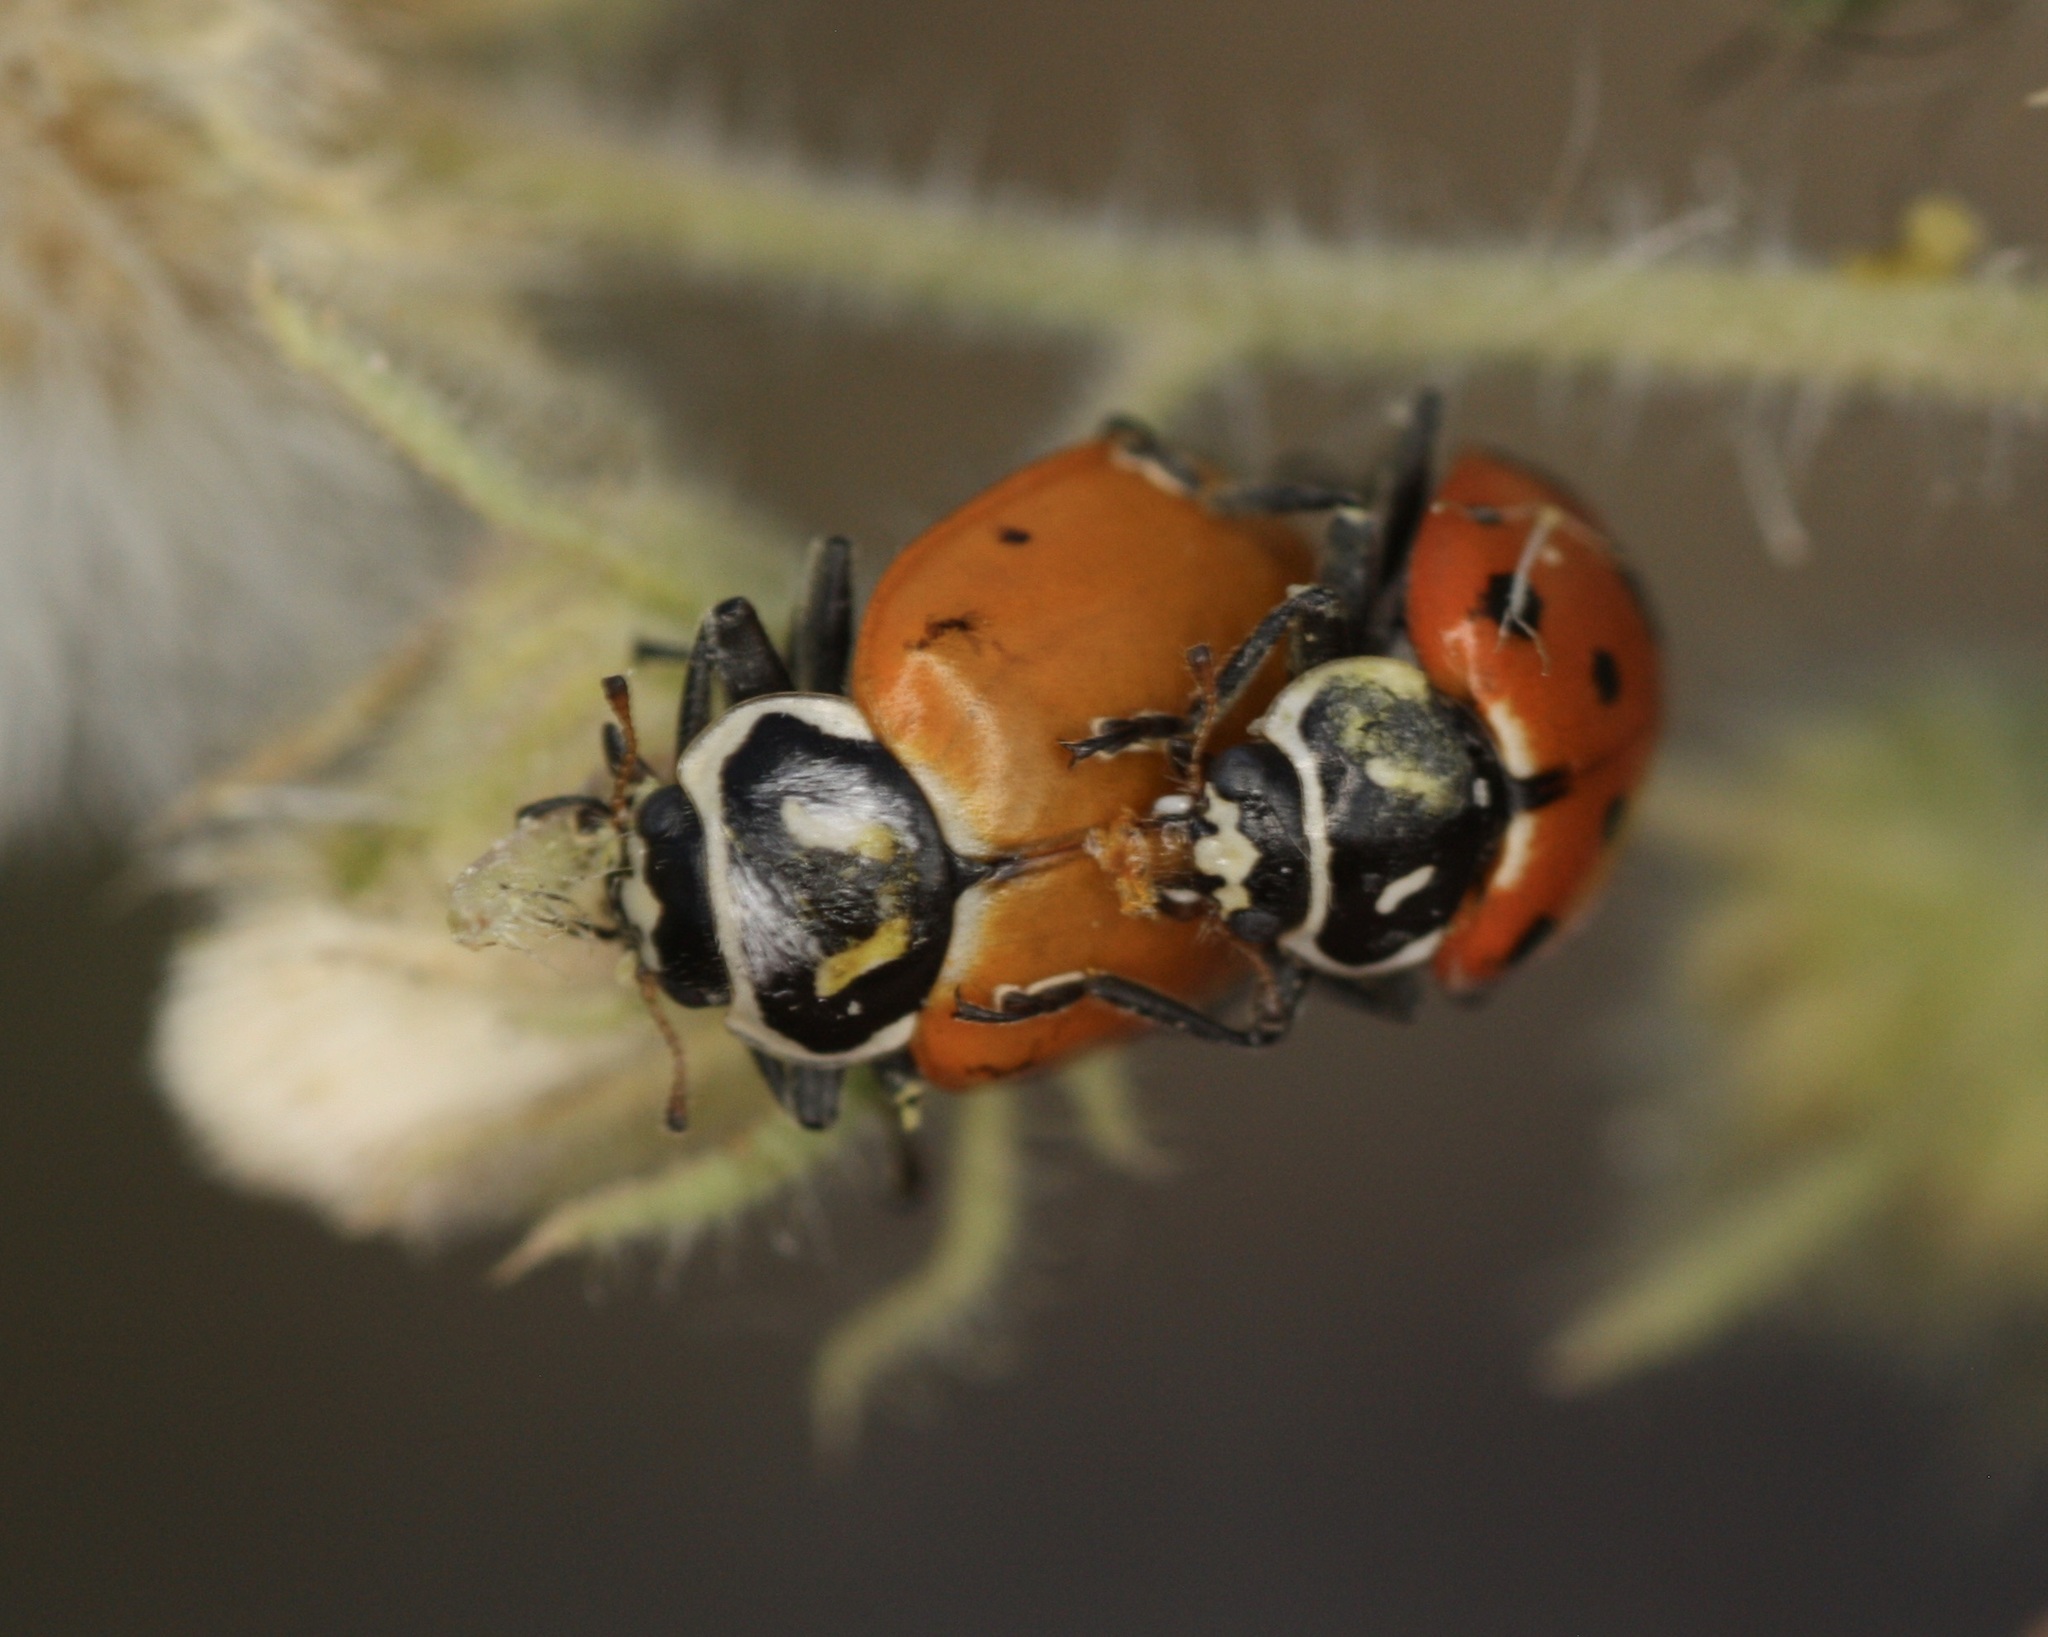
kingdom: Animalia
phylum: Arthropoda
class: Insecta
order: Coleoptera
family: Coccinellidae
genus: Hippodamia
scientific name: Hippodamia convergens
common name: Convergent lady beetle
